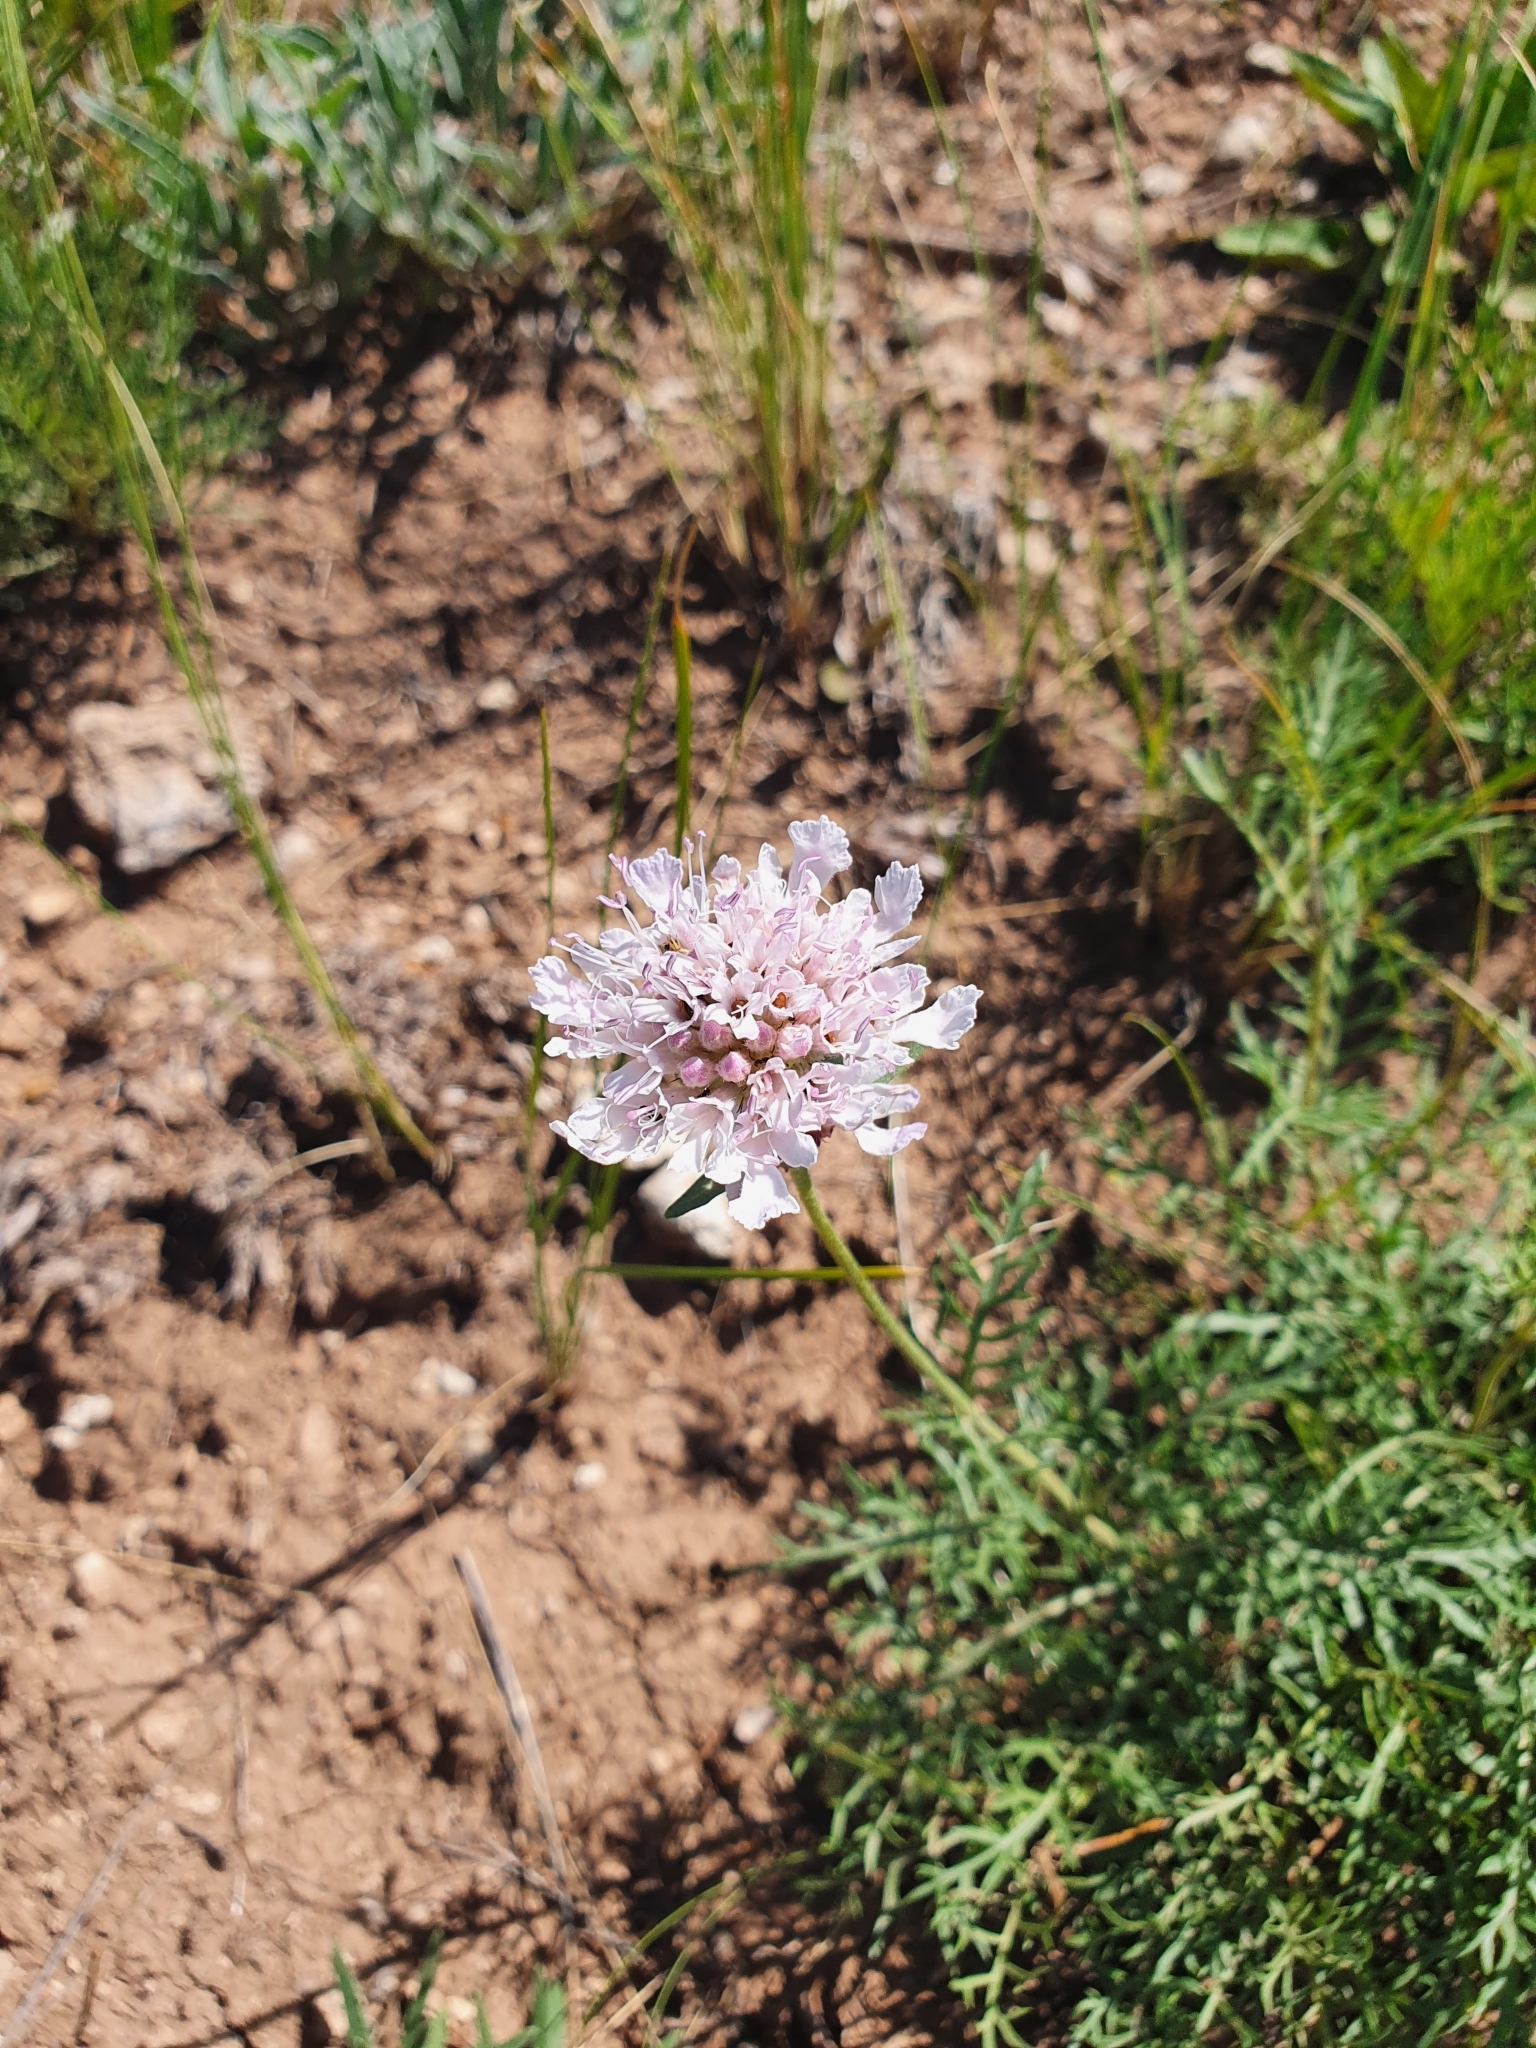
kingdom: Plantae
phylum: Tracheophyta
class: Magnoliopsida
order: Dipsacales
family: Caprifoliaceae
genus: Lomelosia
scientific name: Lomelosia isetensis
